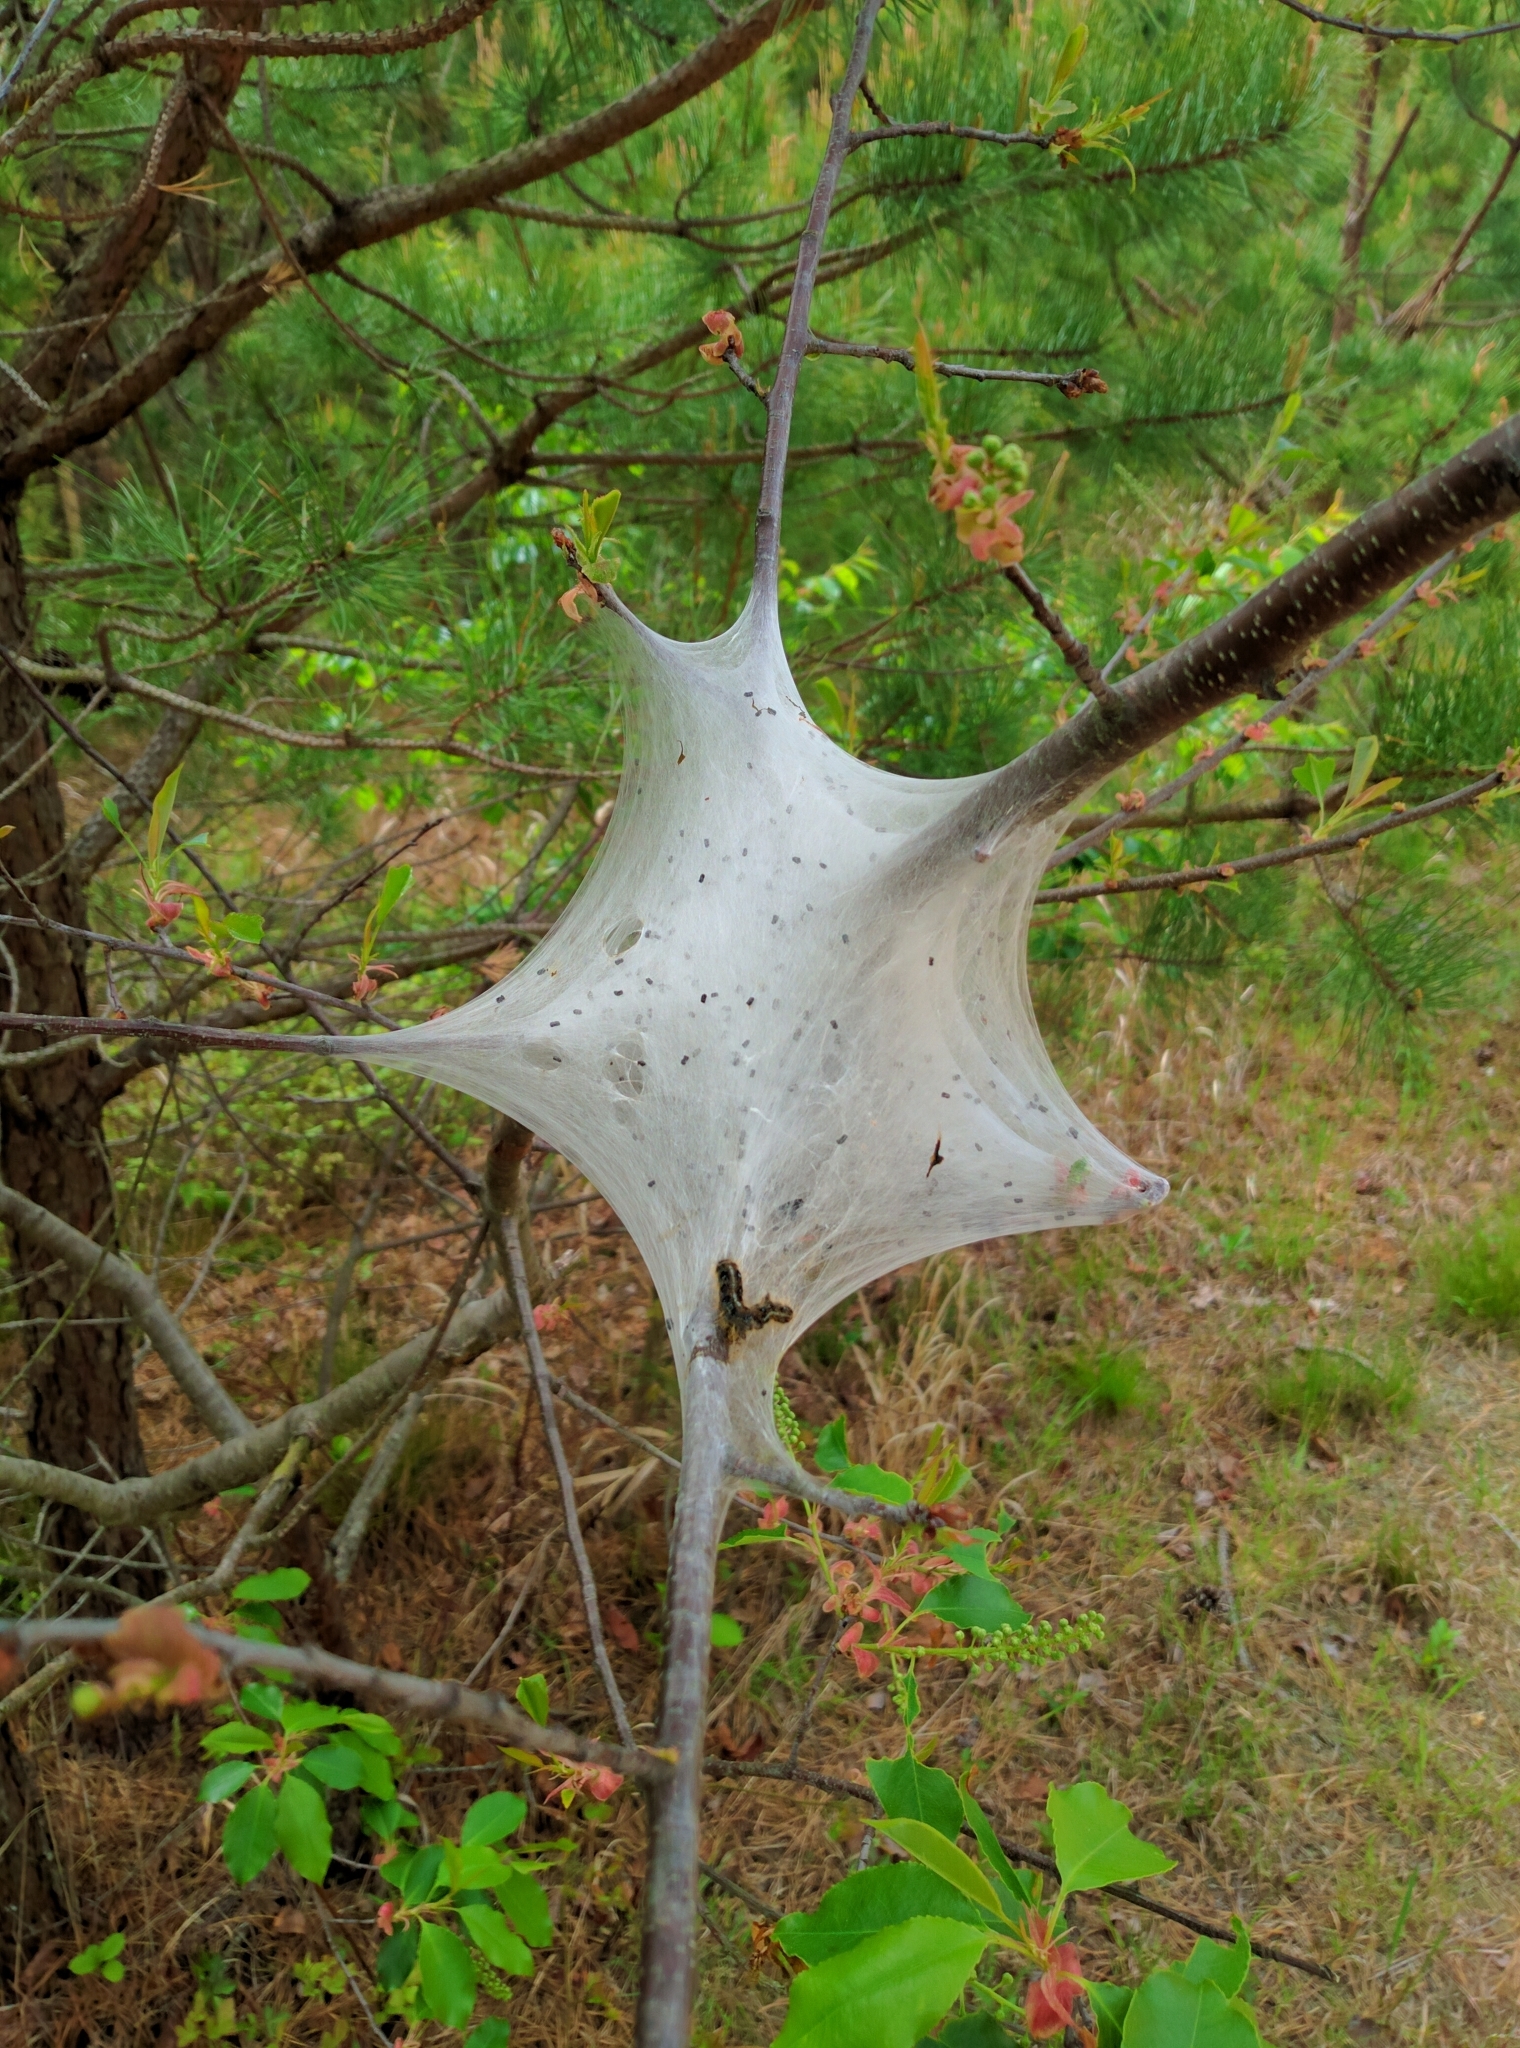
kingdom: Animalia
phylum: Arthropoda
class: Insecta
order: Lepidoptera
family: Lasiocampidae
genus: Malacosoma
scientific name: Malacosoma americana
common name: Eastern tent caterpillar moth
